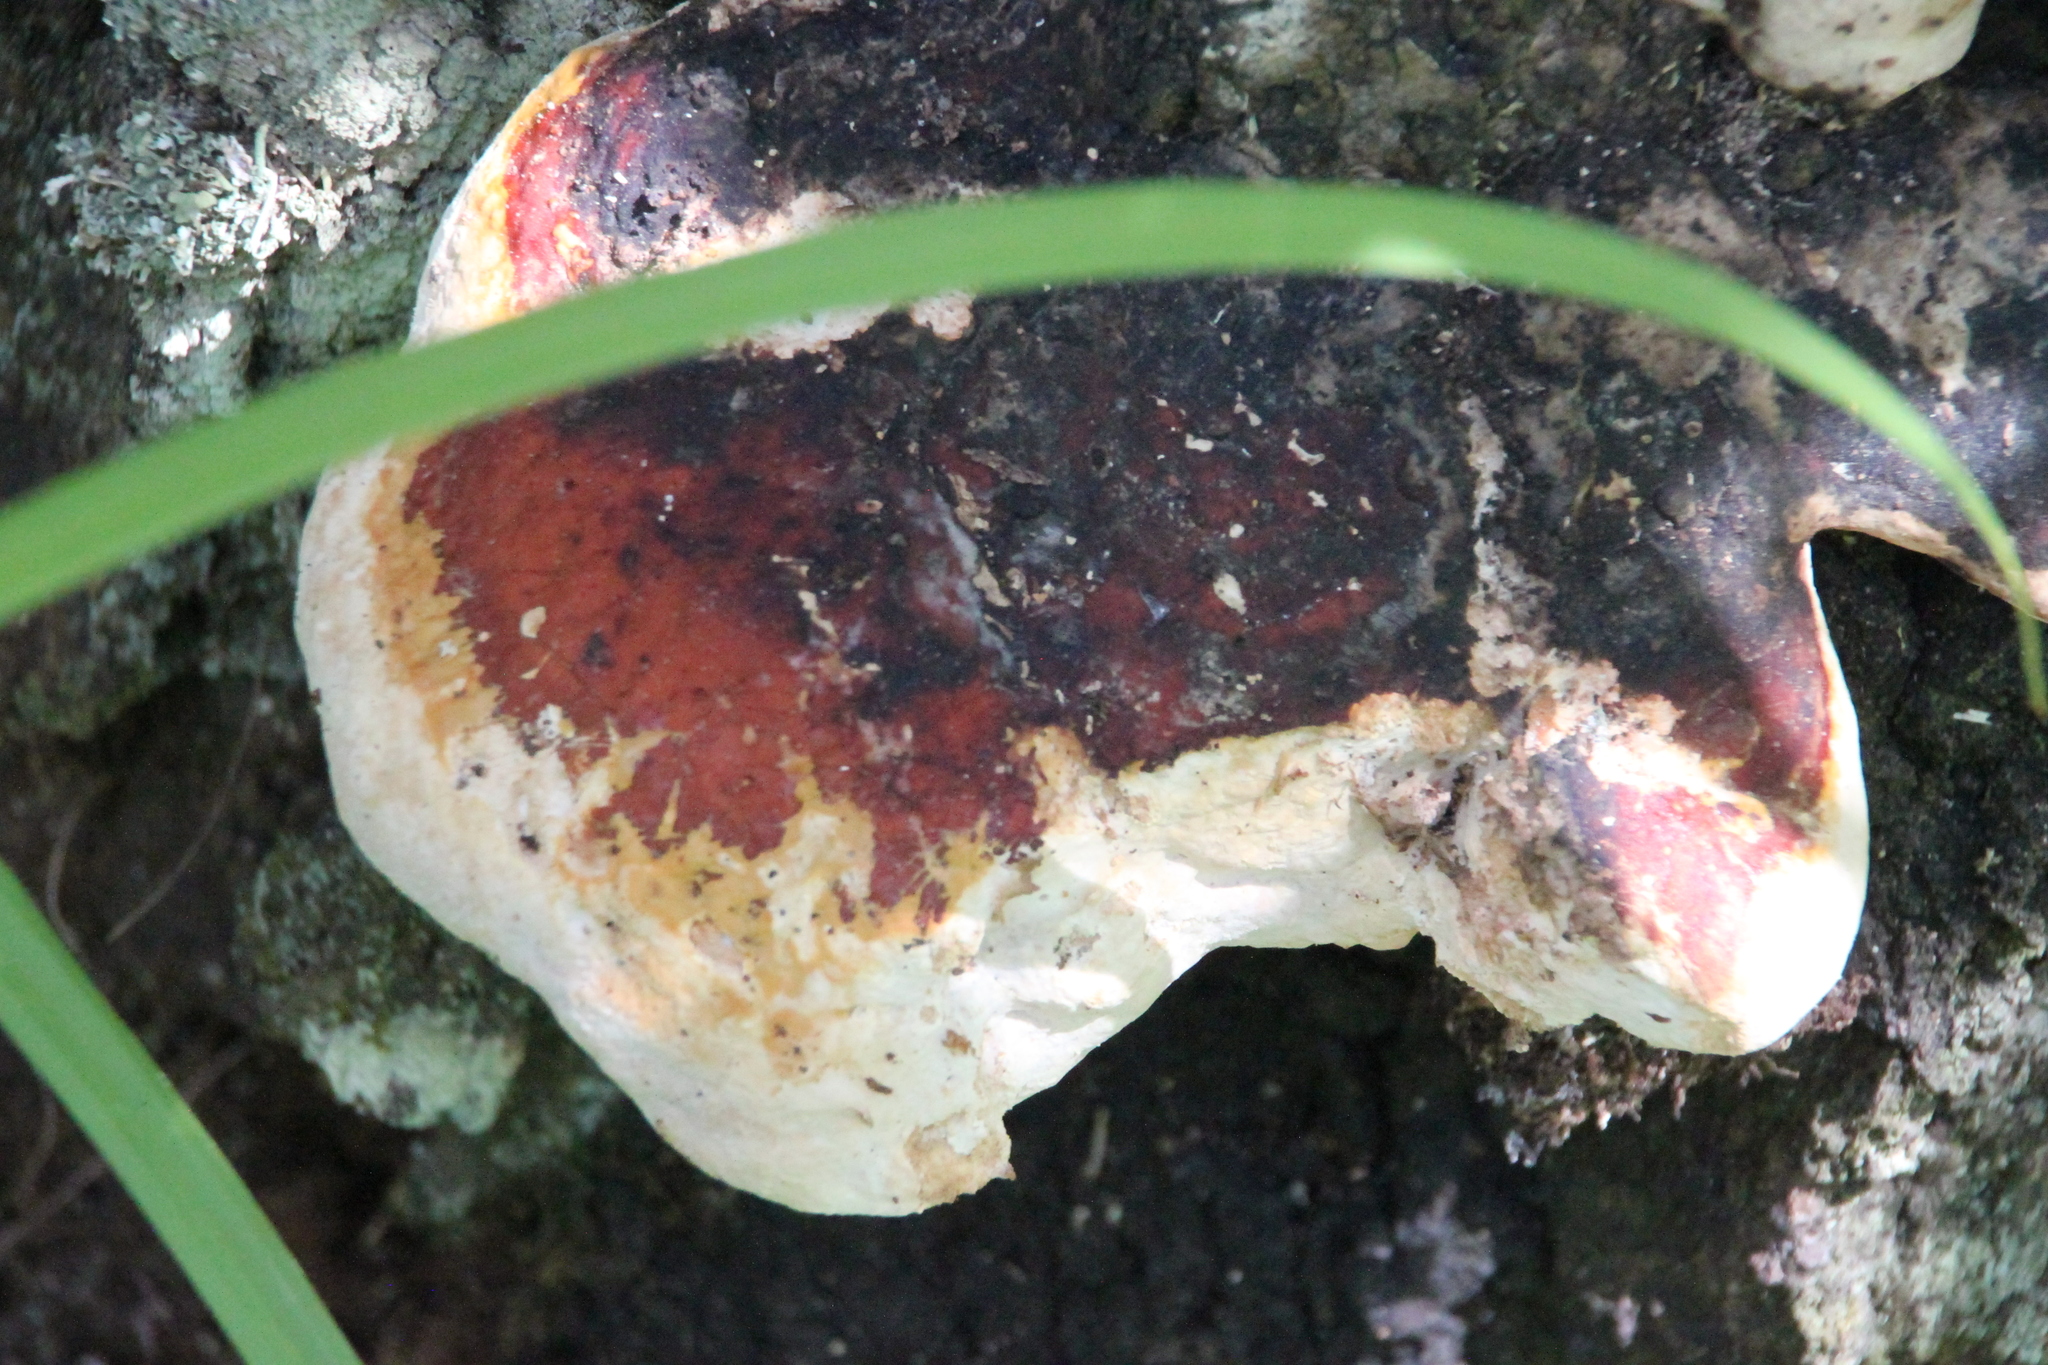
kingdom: Fungi
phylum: Basidiomycota
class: Agaricomycetes
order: Polyporales
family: Fomitopsidaceae
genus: Fomitopsis
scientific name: Fomitopsis pinicola
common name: Red-belted bracket
